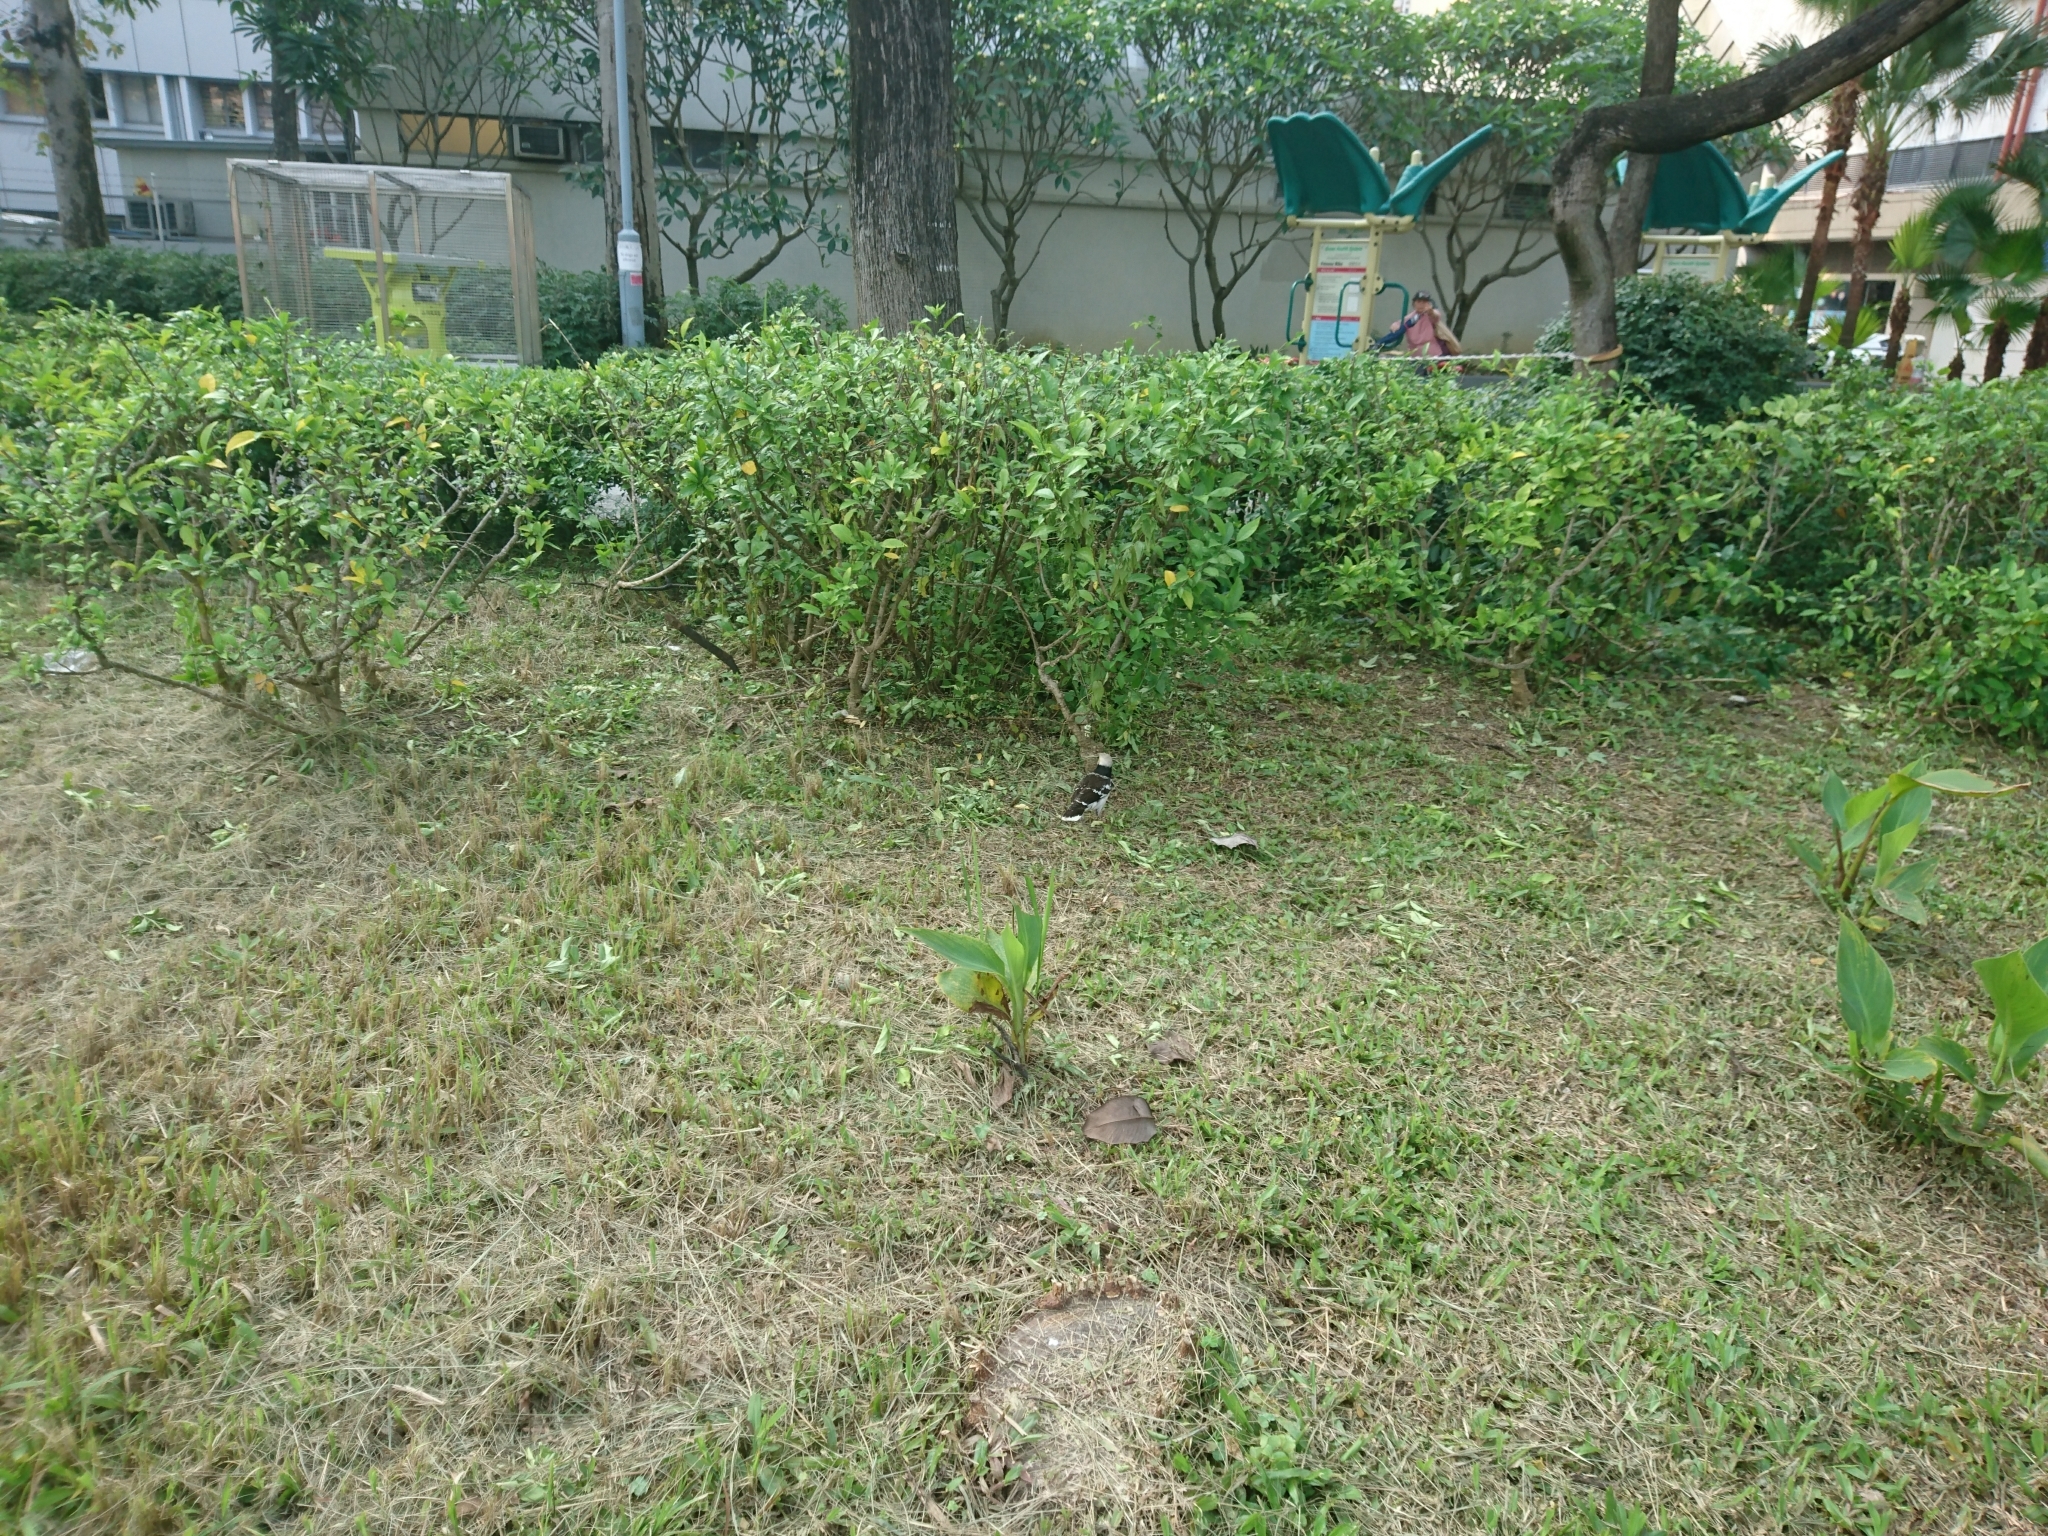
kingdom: Animalia
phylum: Chordata
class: Aves
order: Passeriformes
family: Sturnidae
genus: Gracupica
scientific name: Gracupica nigricollis
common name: Black-collared starling
